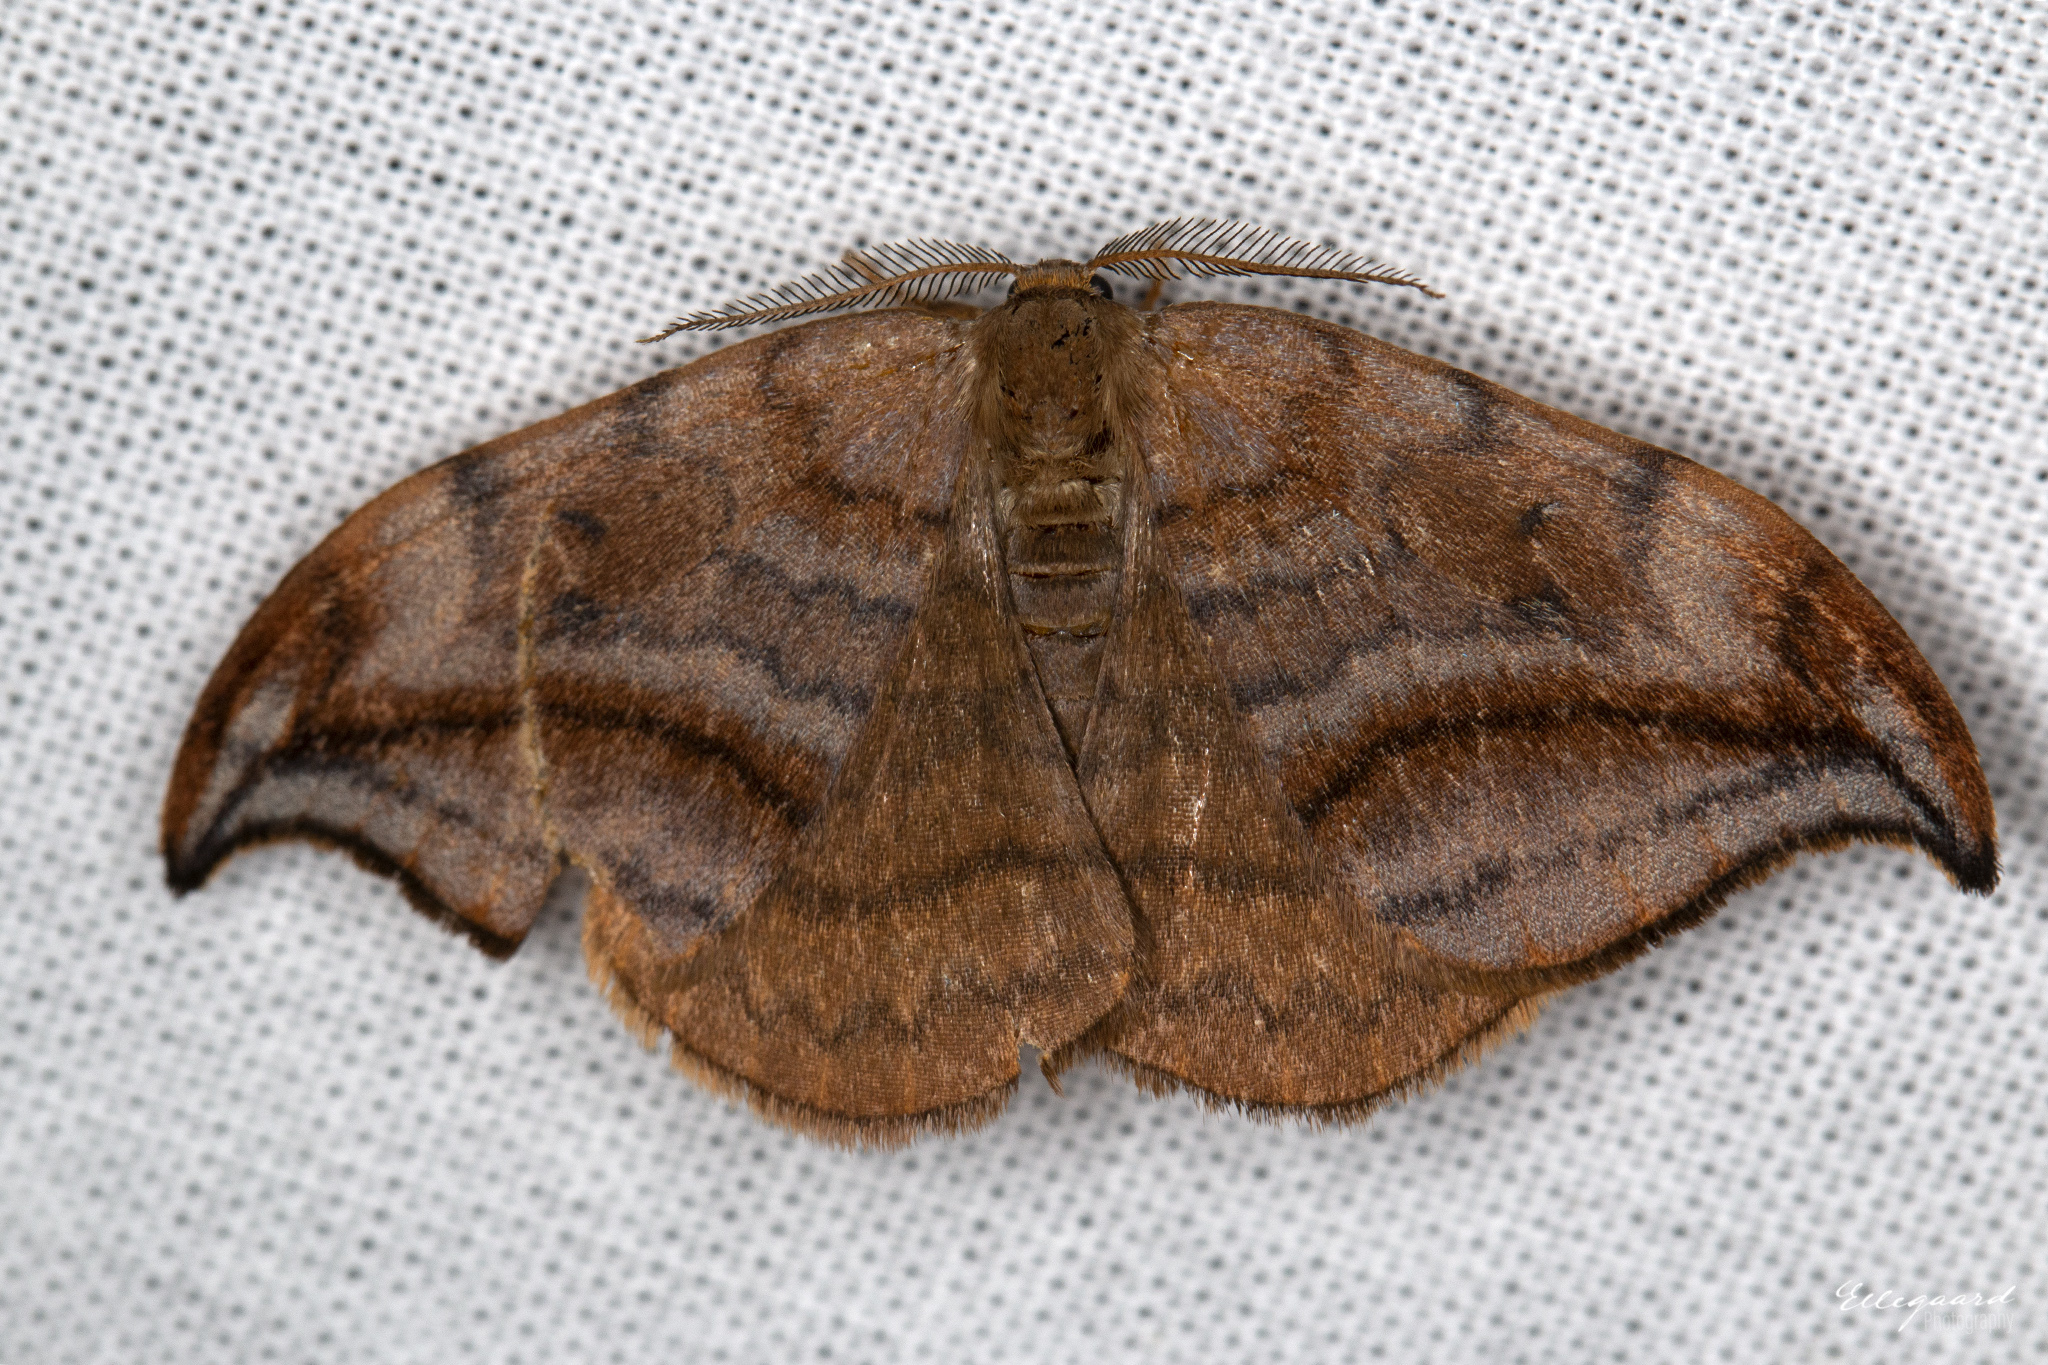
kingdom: Animalia
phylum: Arthropoda
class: Insecta
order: Lepidoptera
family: Drepanidae
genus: Drepana
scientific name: Drepana curvatula
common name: Dusky hook-tip
